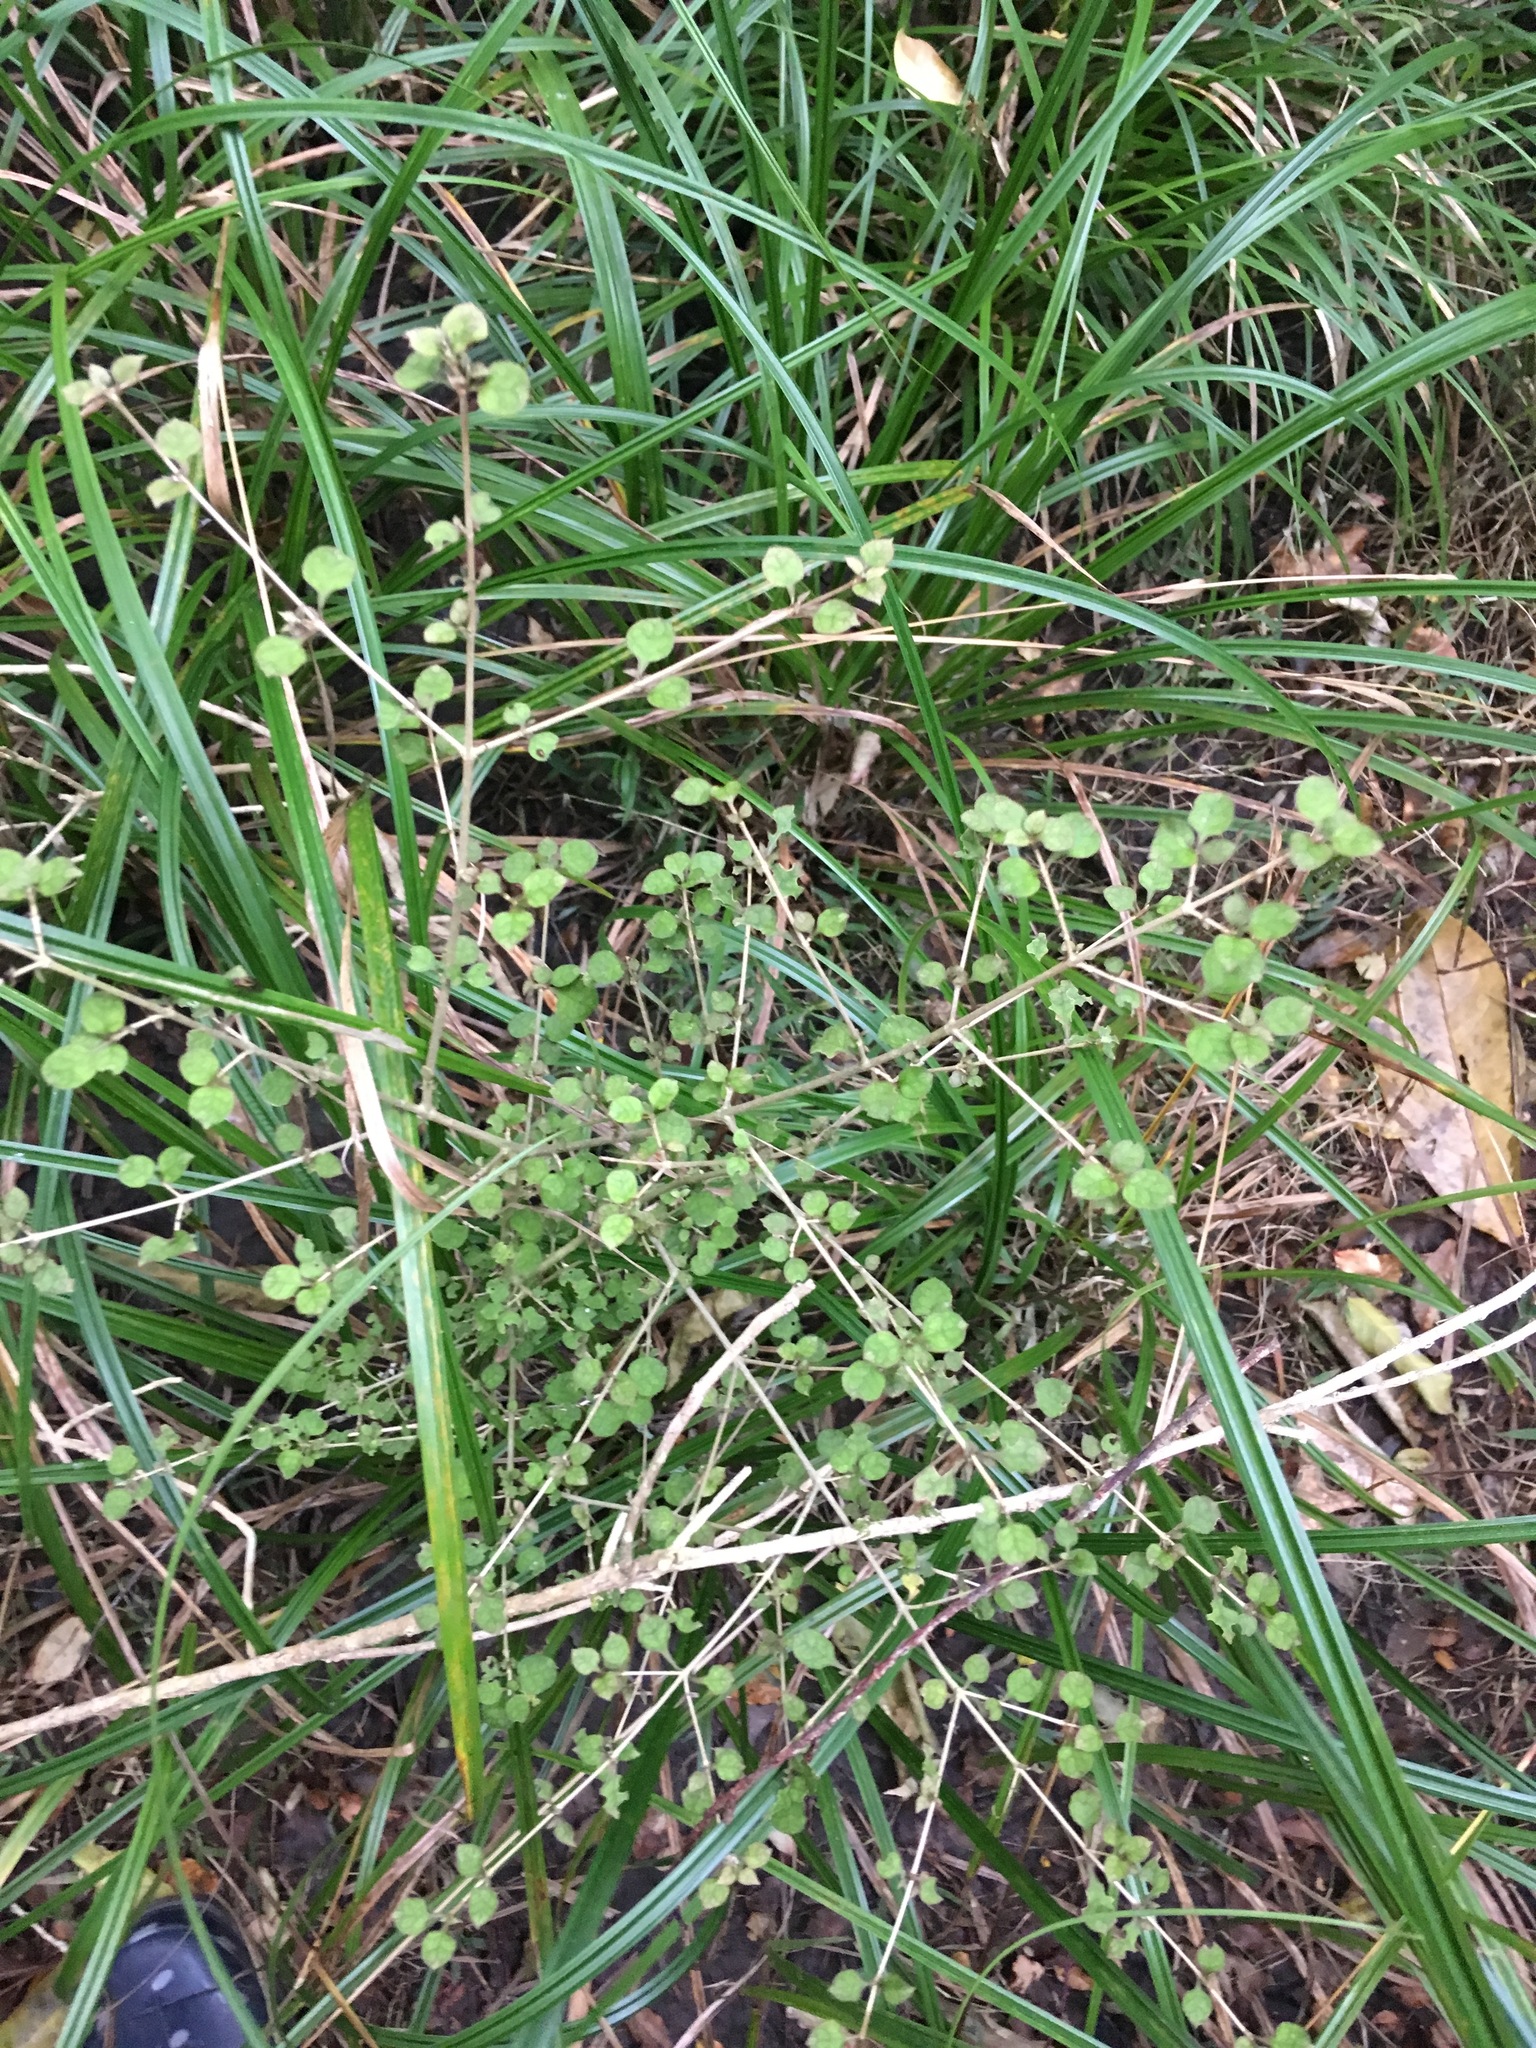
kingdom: Plantae
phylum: Tracheophyta
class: Magnoliopsida
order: Gentianales
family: Rubiaceae
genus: Coprosma
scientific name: Coprosma areolata
